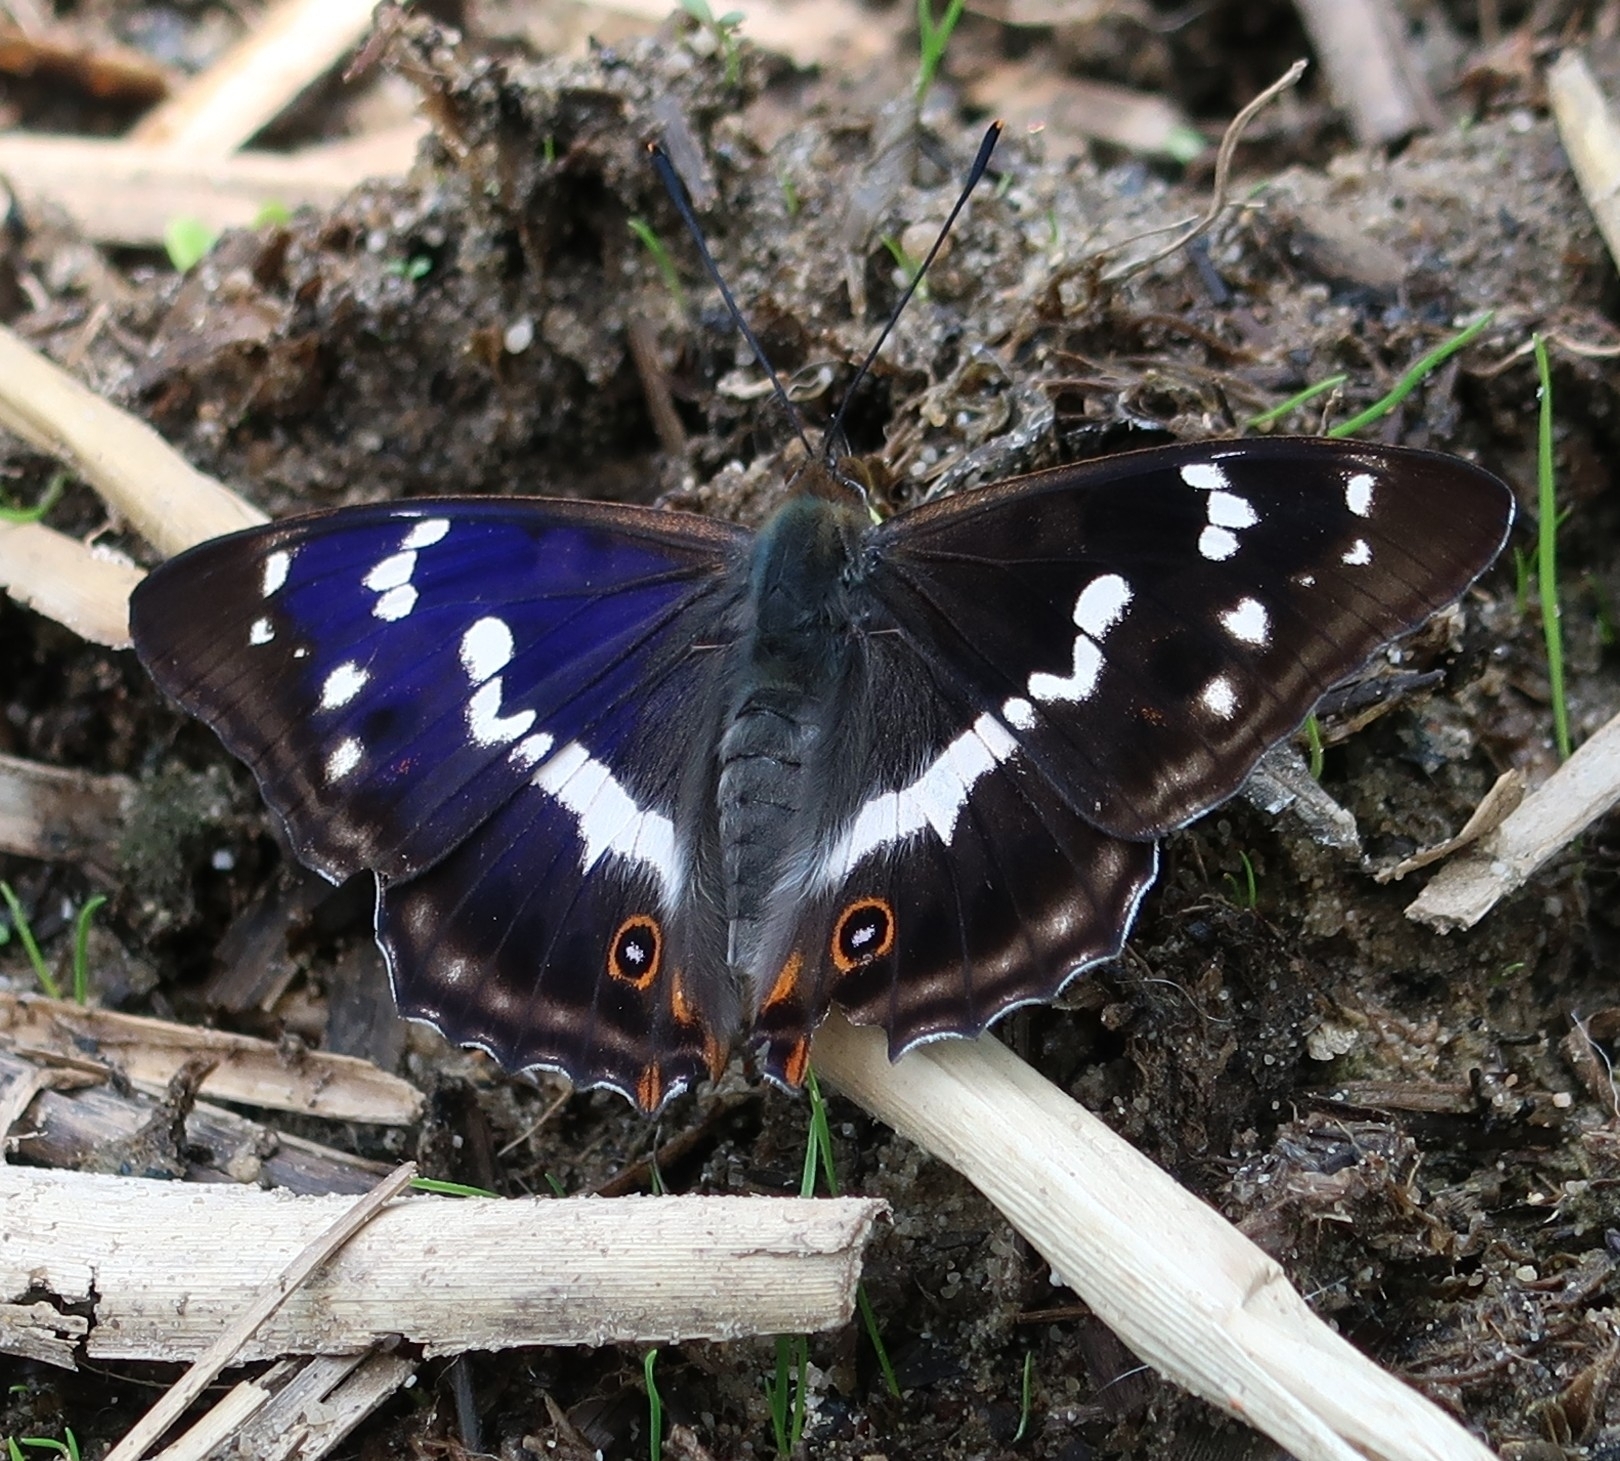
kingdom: Animalia
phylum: Arthropoda
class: Insecta
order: Lepidoptera
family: Nymphalidae
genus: Apatura
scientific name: Apatura iris
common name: Purple emperor
